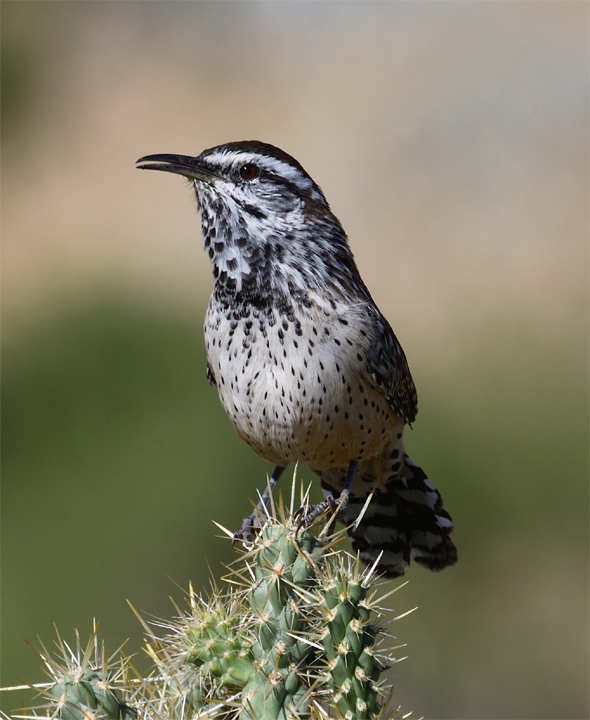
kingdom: Animalia
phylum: Chordata
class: Aves
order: Passeriformes
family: Troglodytidae
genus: Campylorhynchus
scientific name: Campylorhynchus brunneicapillus
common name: Cactus wren
